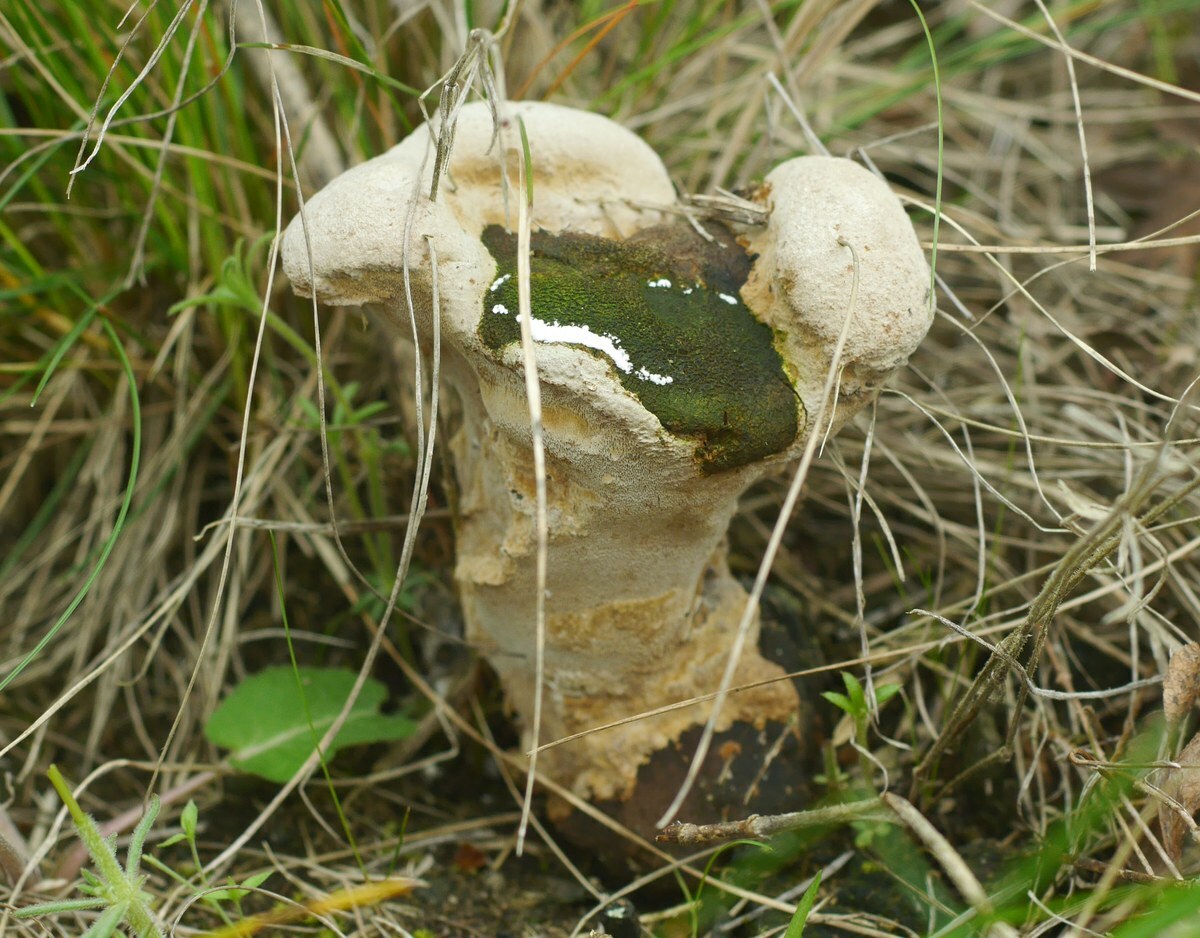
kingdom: Fungi
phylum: Basidiomycota
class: Agaricomycetes
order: Hymenochaetales
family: Hymenochaetaceae
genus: Phellinus
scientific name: Phellinus pomaceus
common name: Cushion bracket
